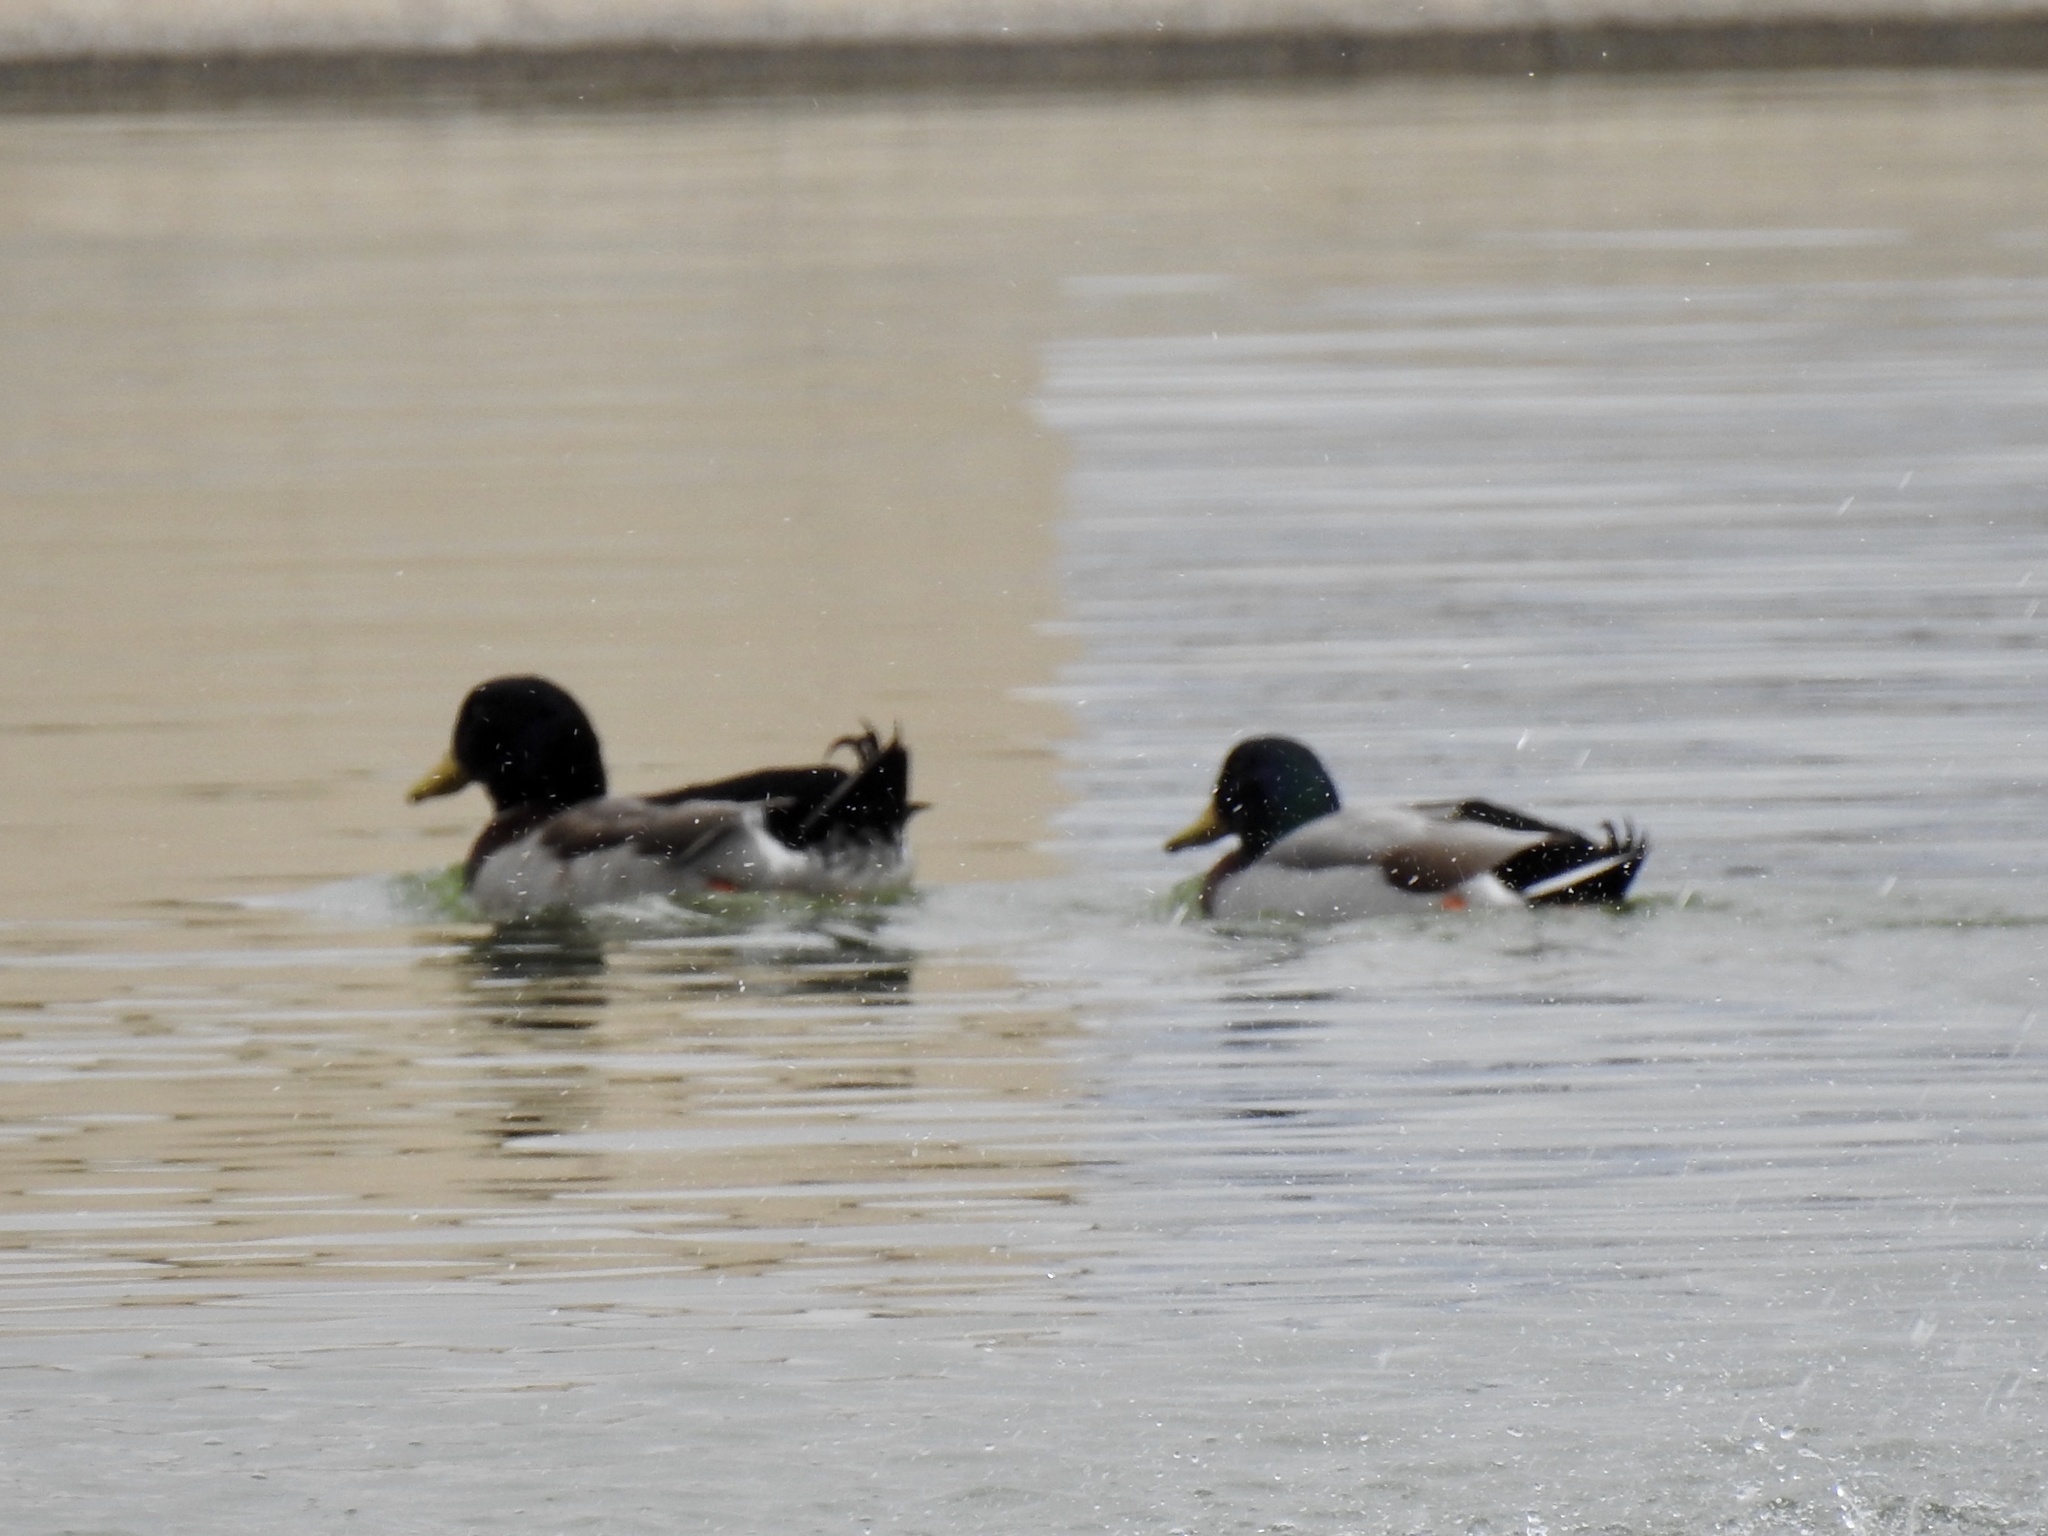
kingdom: Animalia
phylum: Chordata
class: Aves
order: Anseriformes
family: Anatidae
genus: Anas
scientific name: Anas platyrhynchos
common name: Mallard
